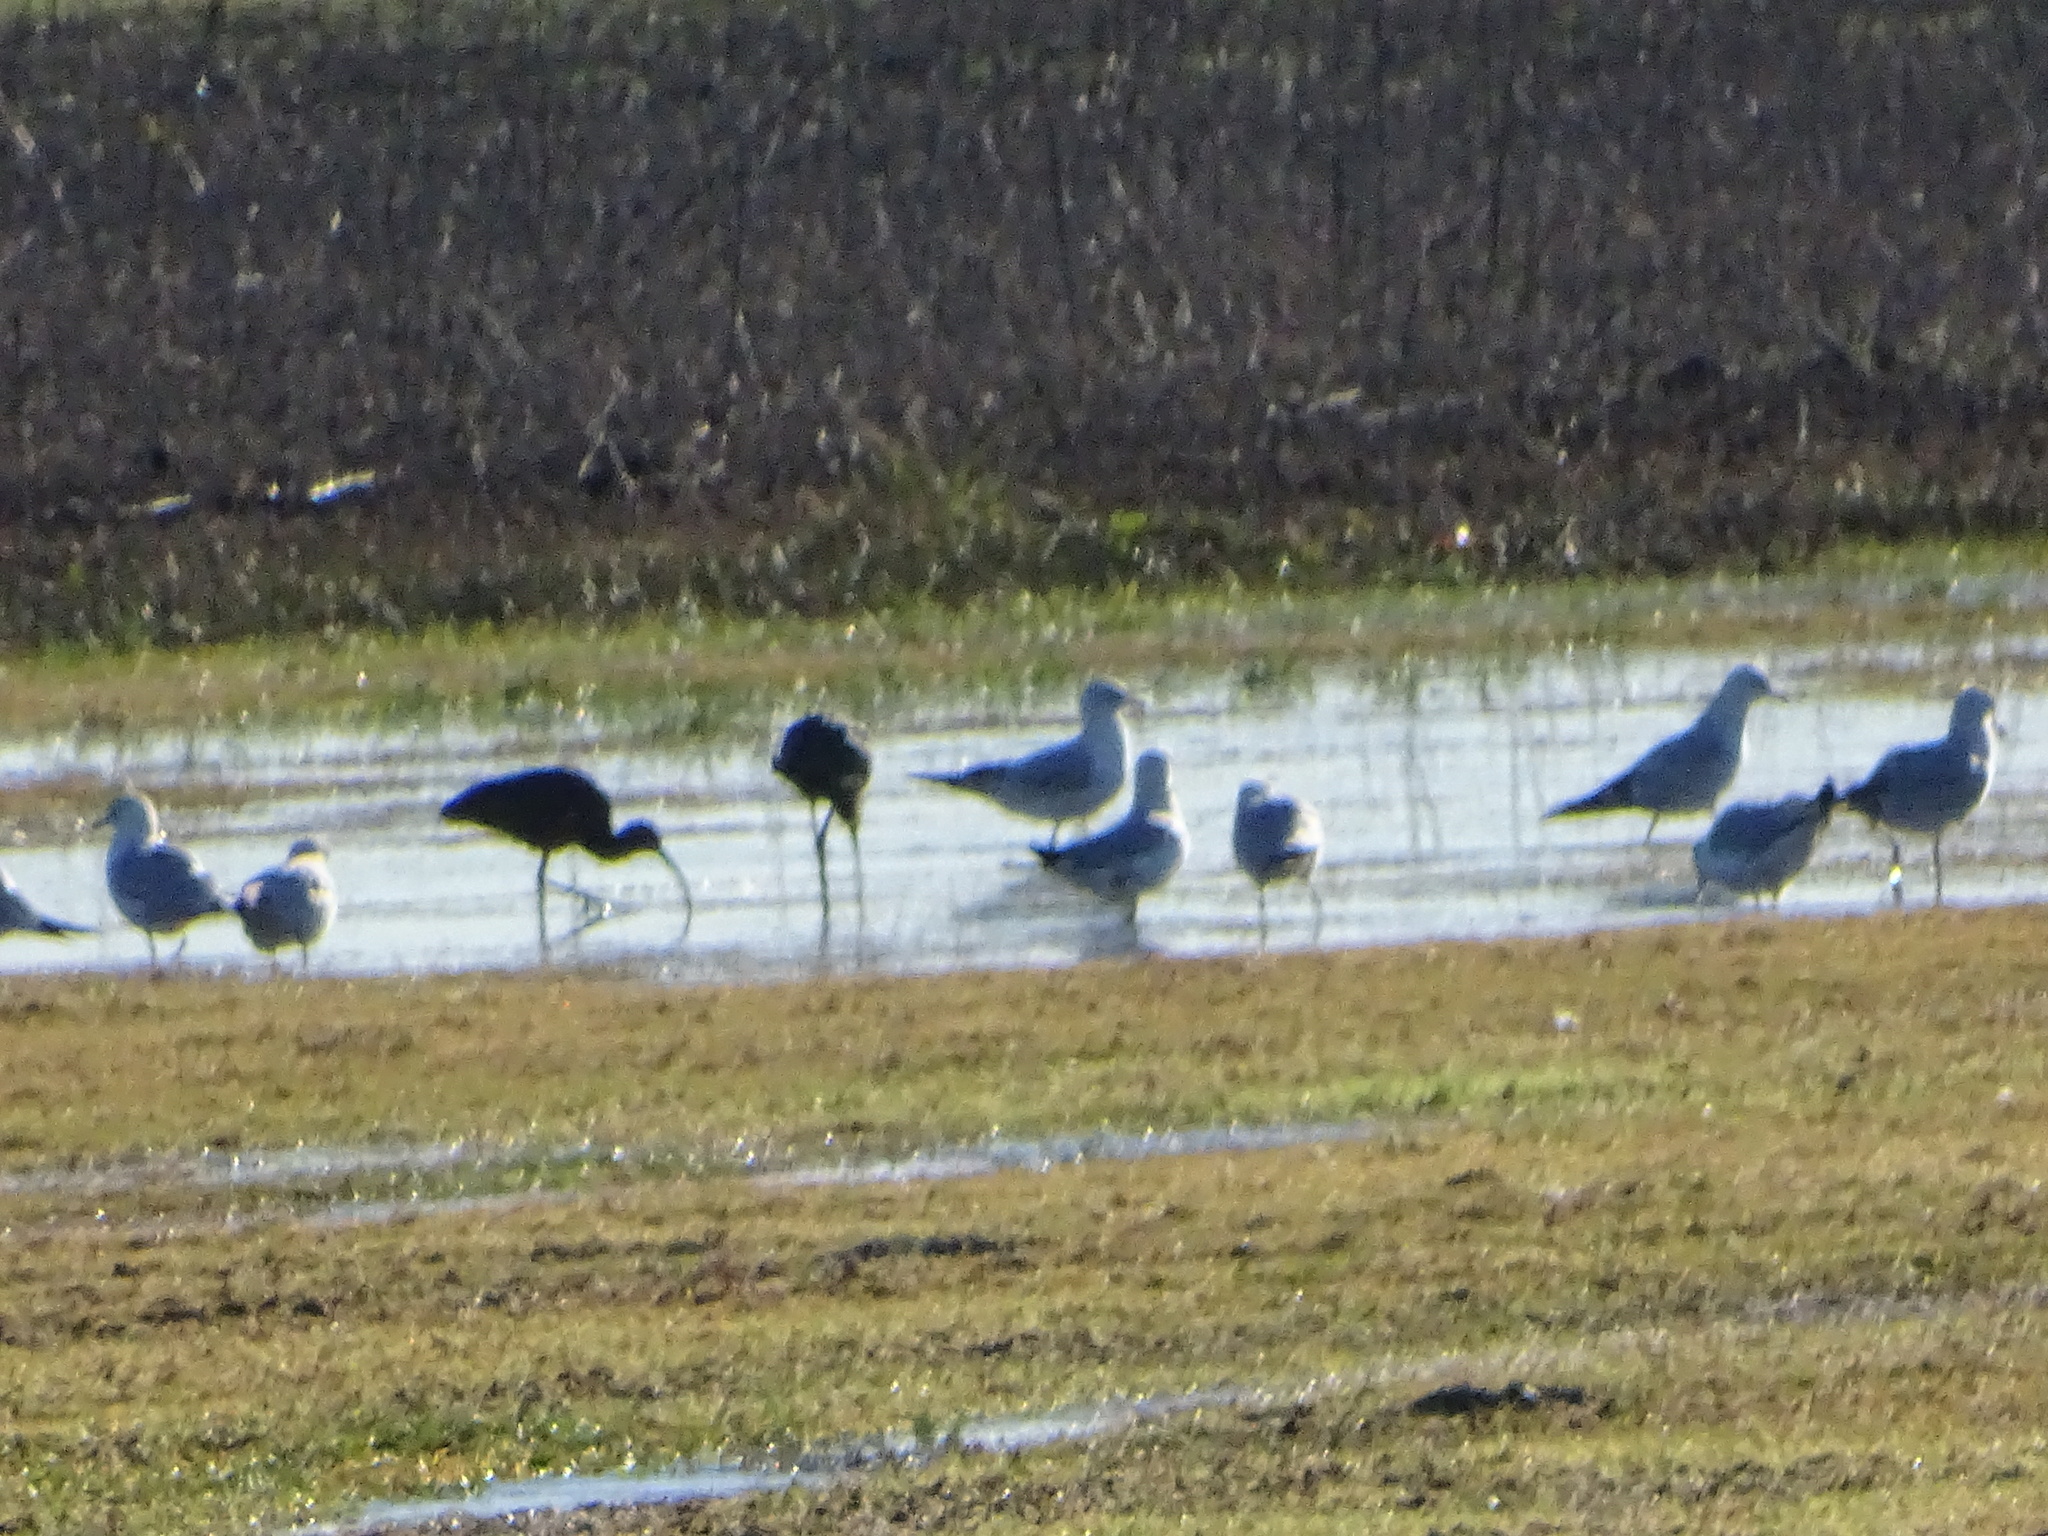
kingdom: Animalia
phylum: Chordata
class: Aves
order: Charadriiformes
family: Laridae
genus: Larus
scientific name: Larus delawarensis
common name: Ring-billed gull
